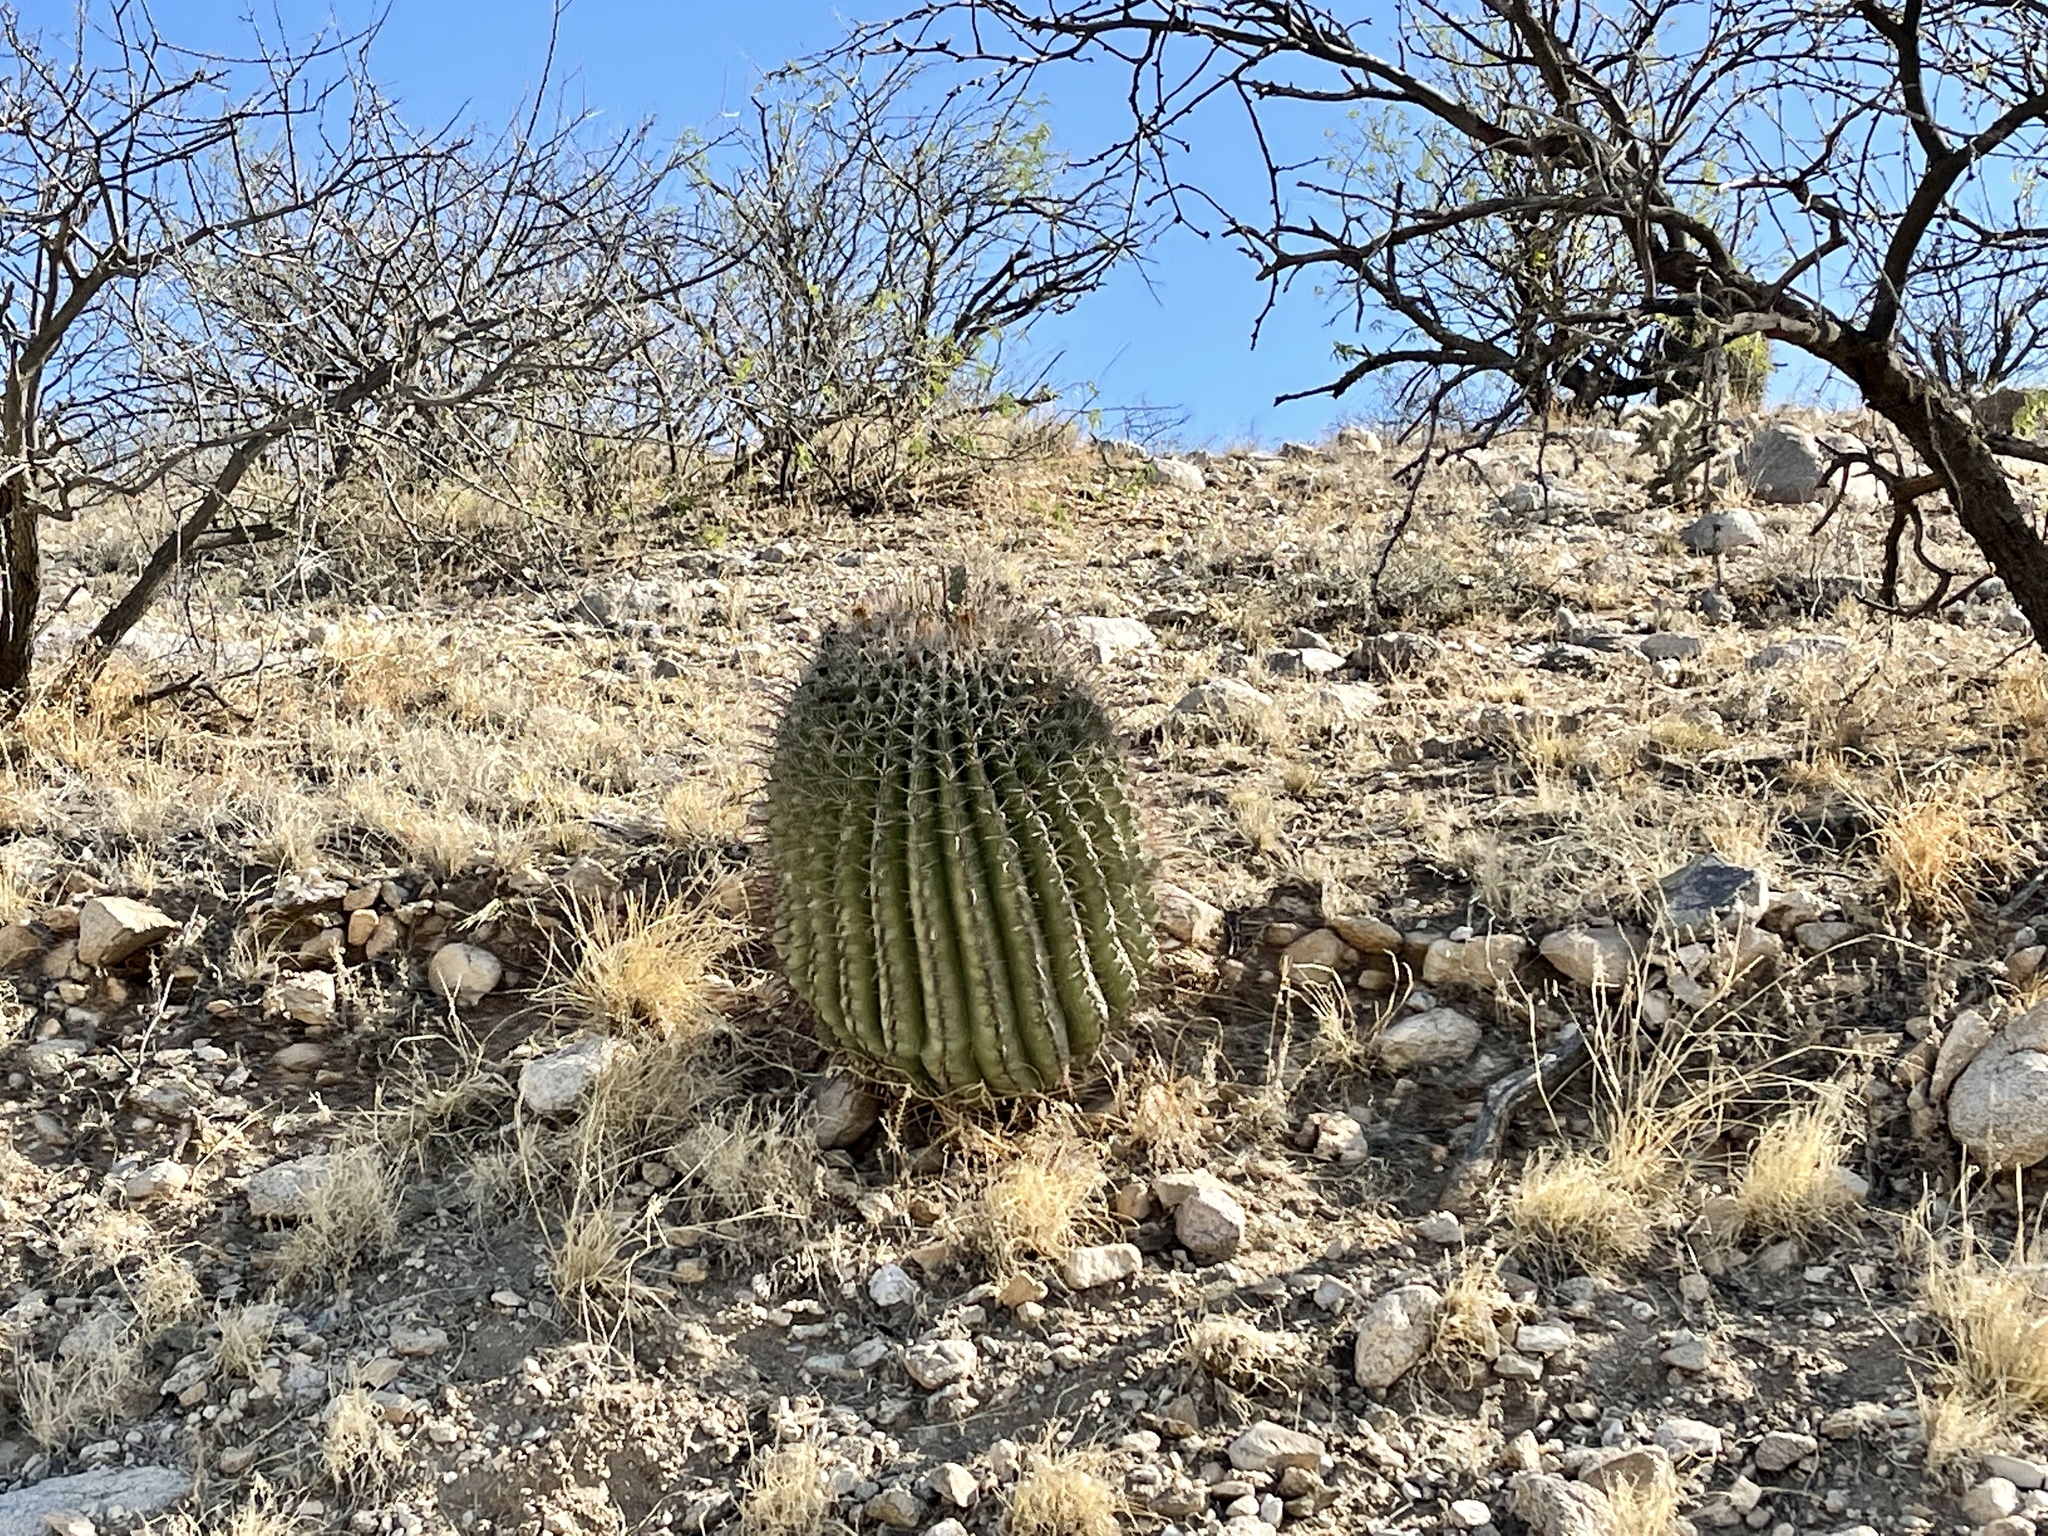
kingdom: Plantae
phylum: Tracheophyta
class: Magnoliopsida
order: Caryophyllales
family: Cactaceae
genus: Ferocactus
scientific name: Ferocactus wislizeni
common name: Candy barrel cactus
